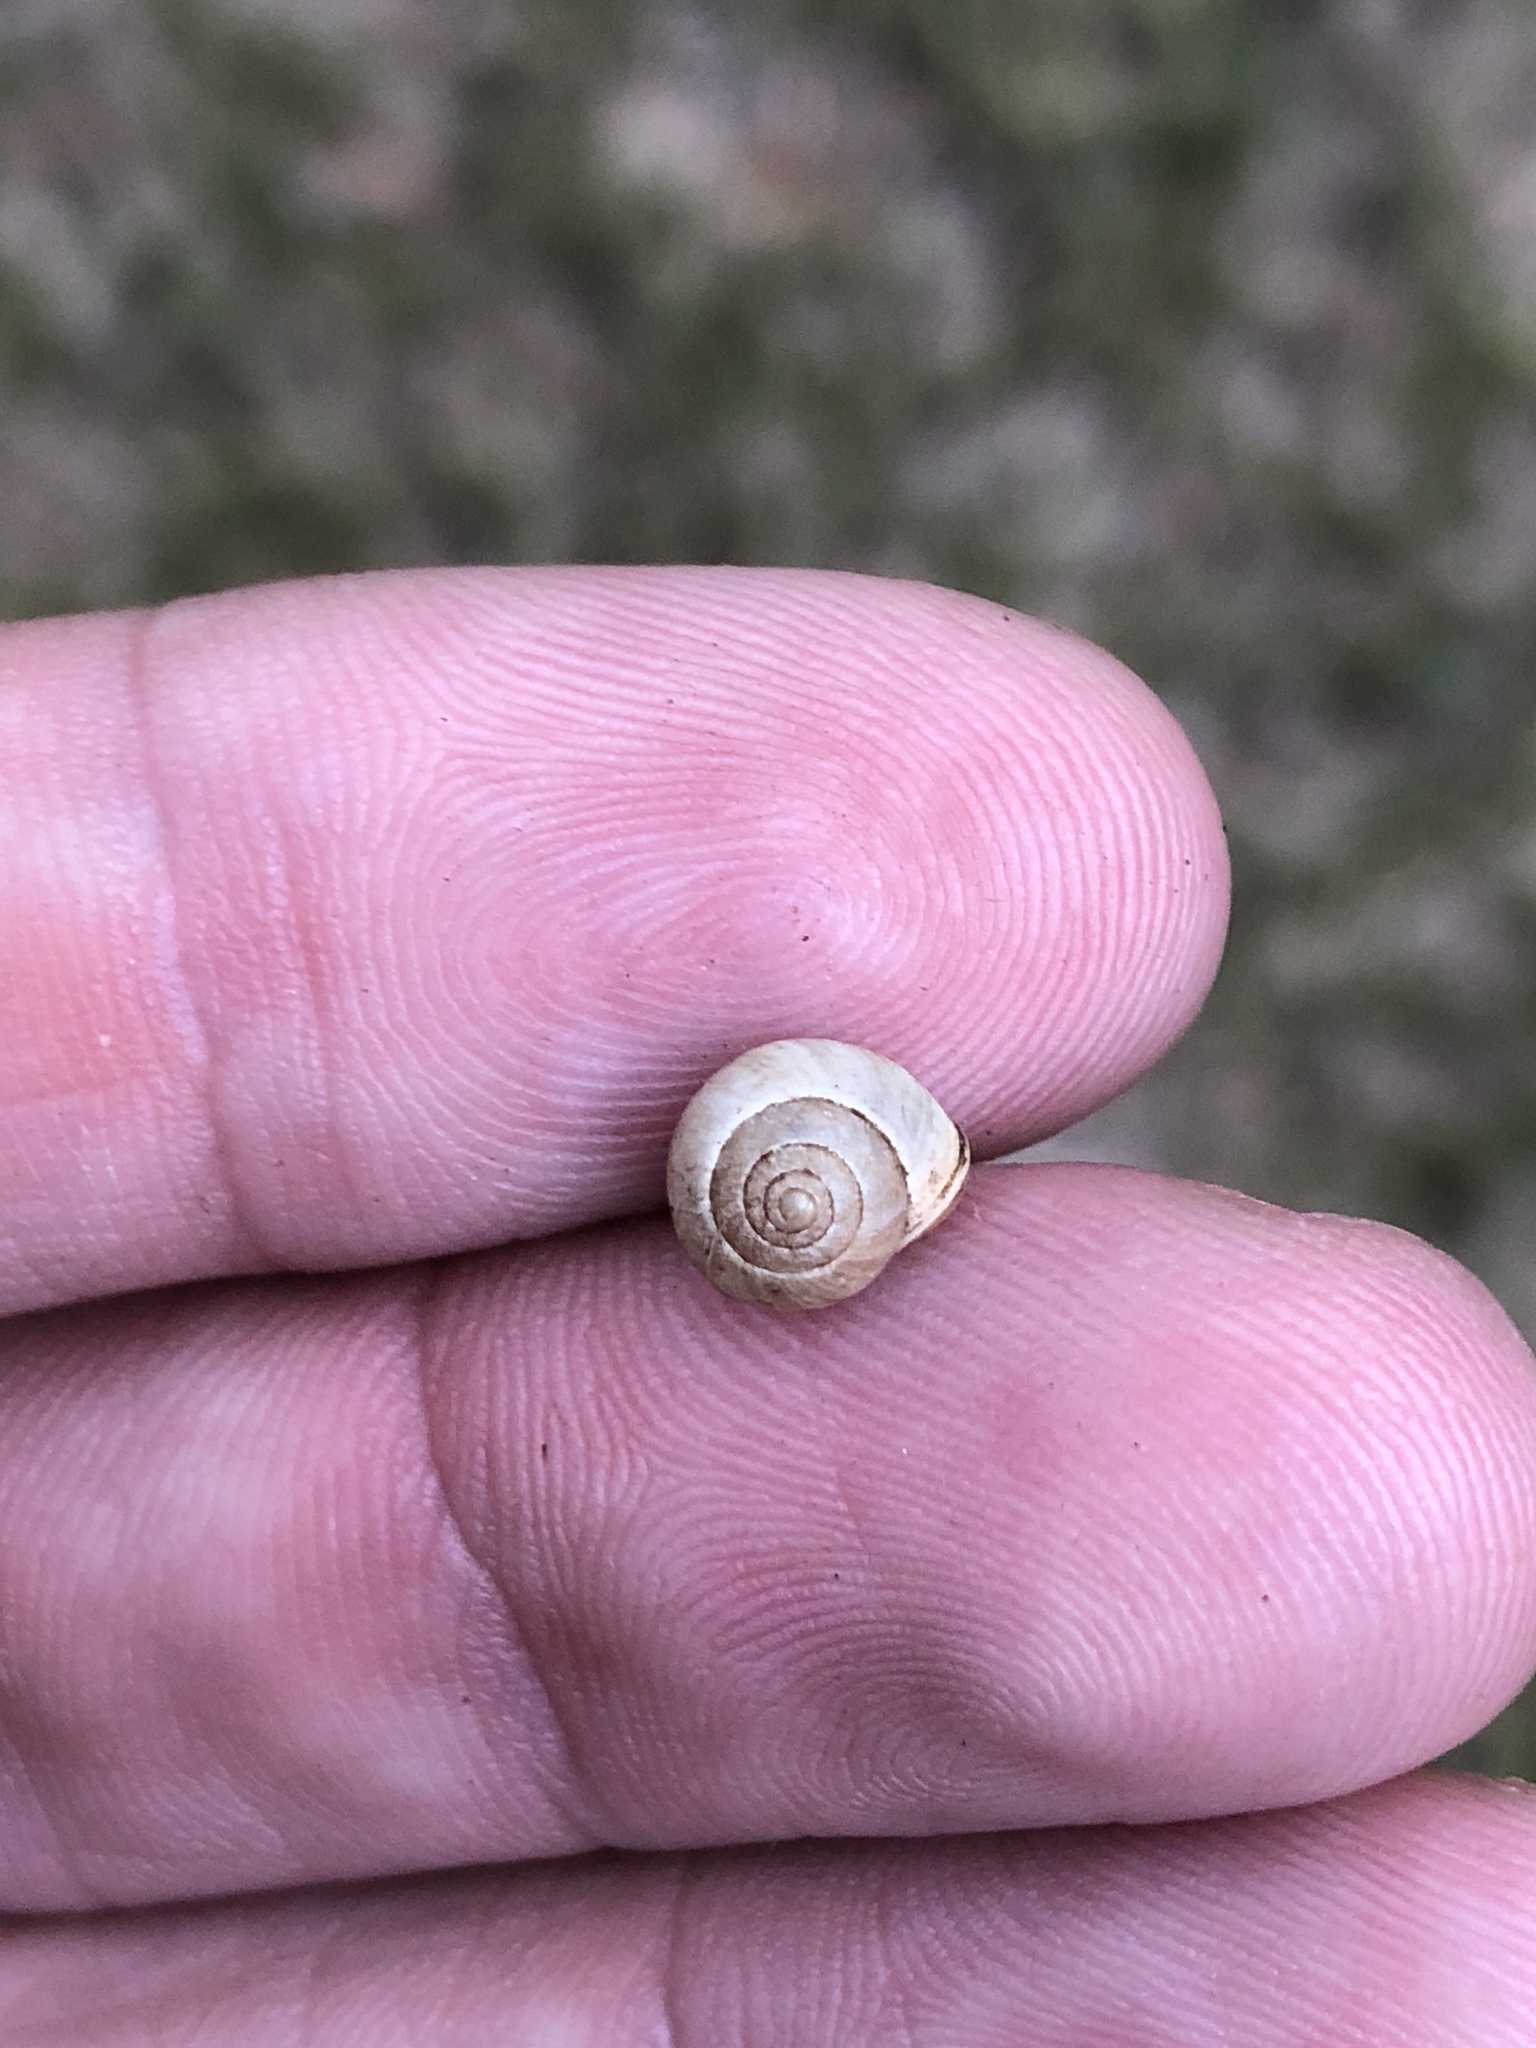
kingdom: Animalia
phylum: Mollusca
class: Gastropoda
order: Cycloneritida
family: Helicinidae
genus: Helicina
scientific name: Helicina orbiculata
